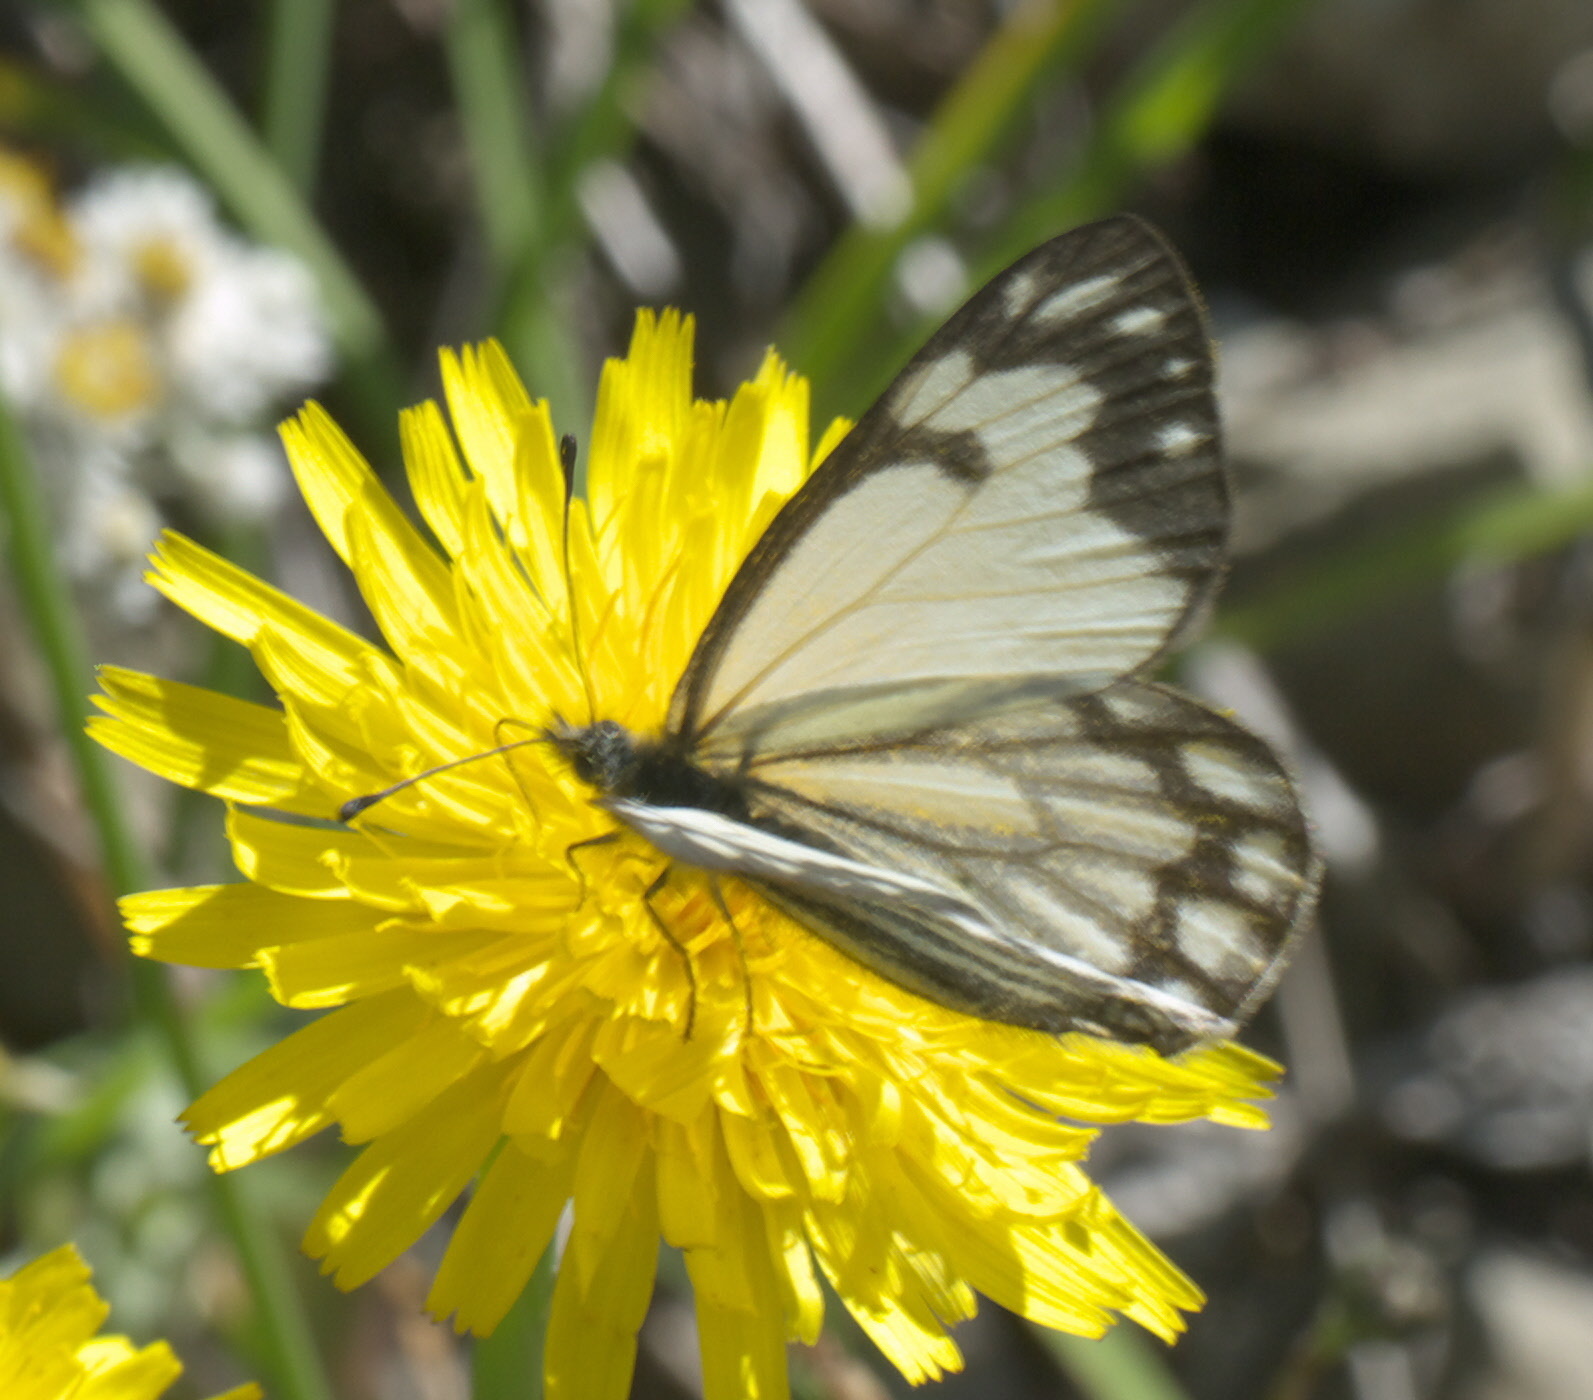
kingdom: Animalia
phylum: Arthropoda
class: Insecta
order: Lepidoptera
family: Pieridae
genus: Neophasia
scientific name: Neophasia menapia
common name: Pine white
